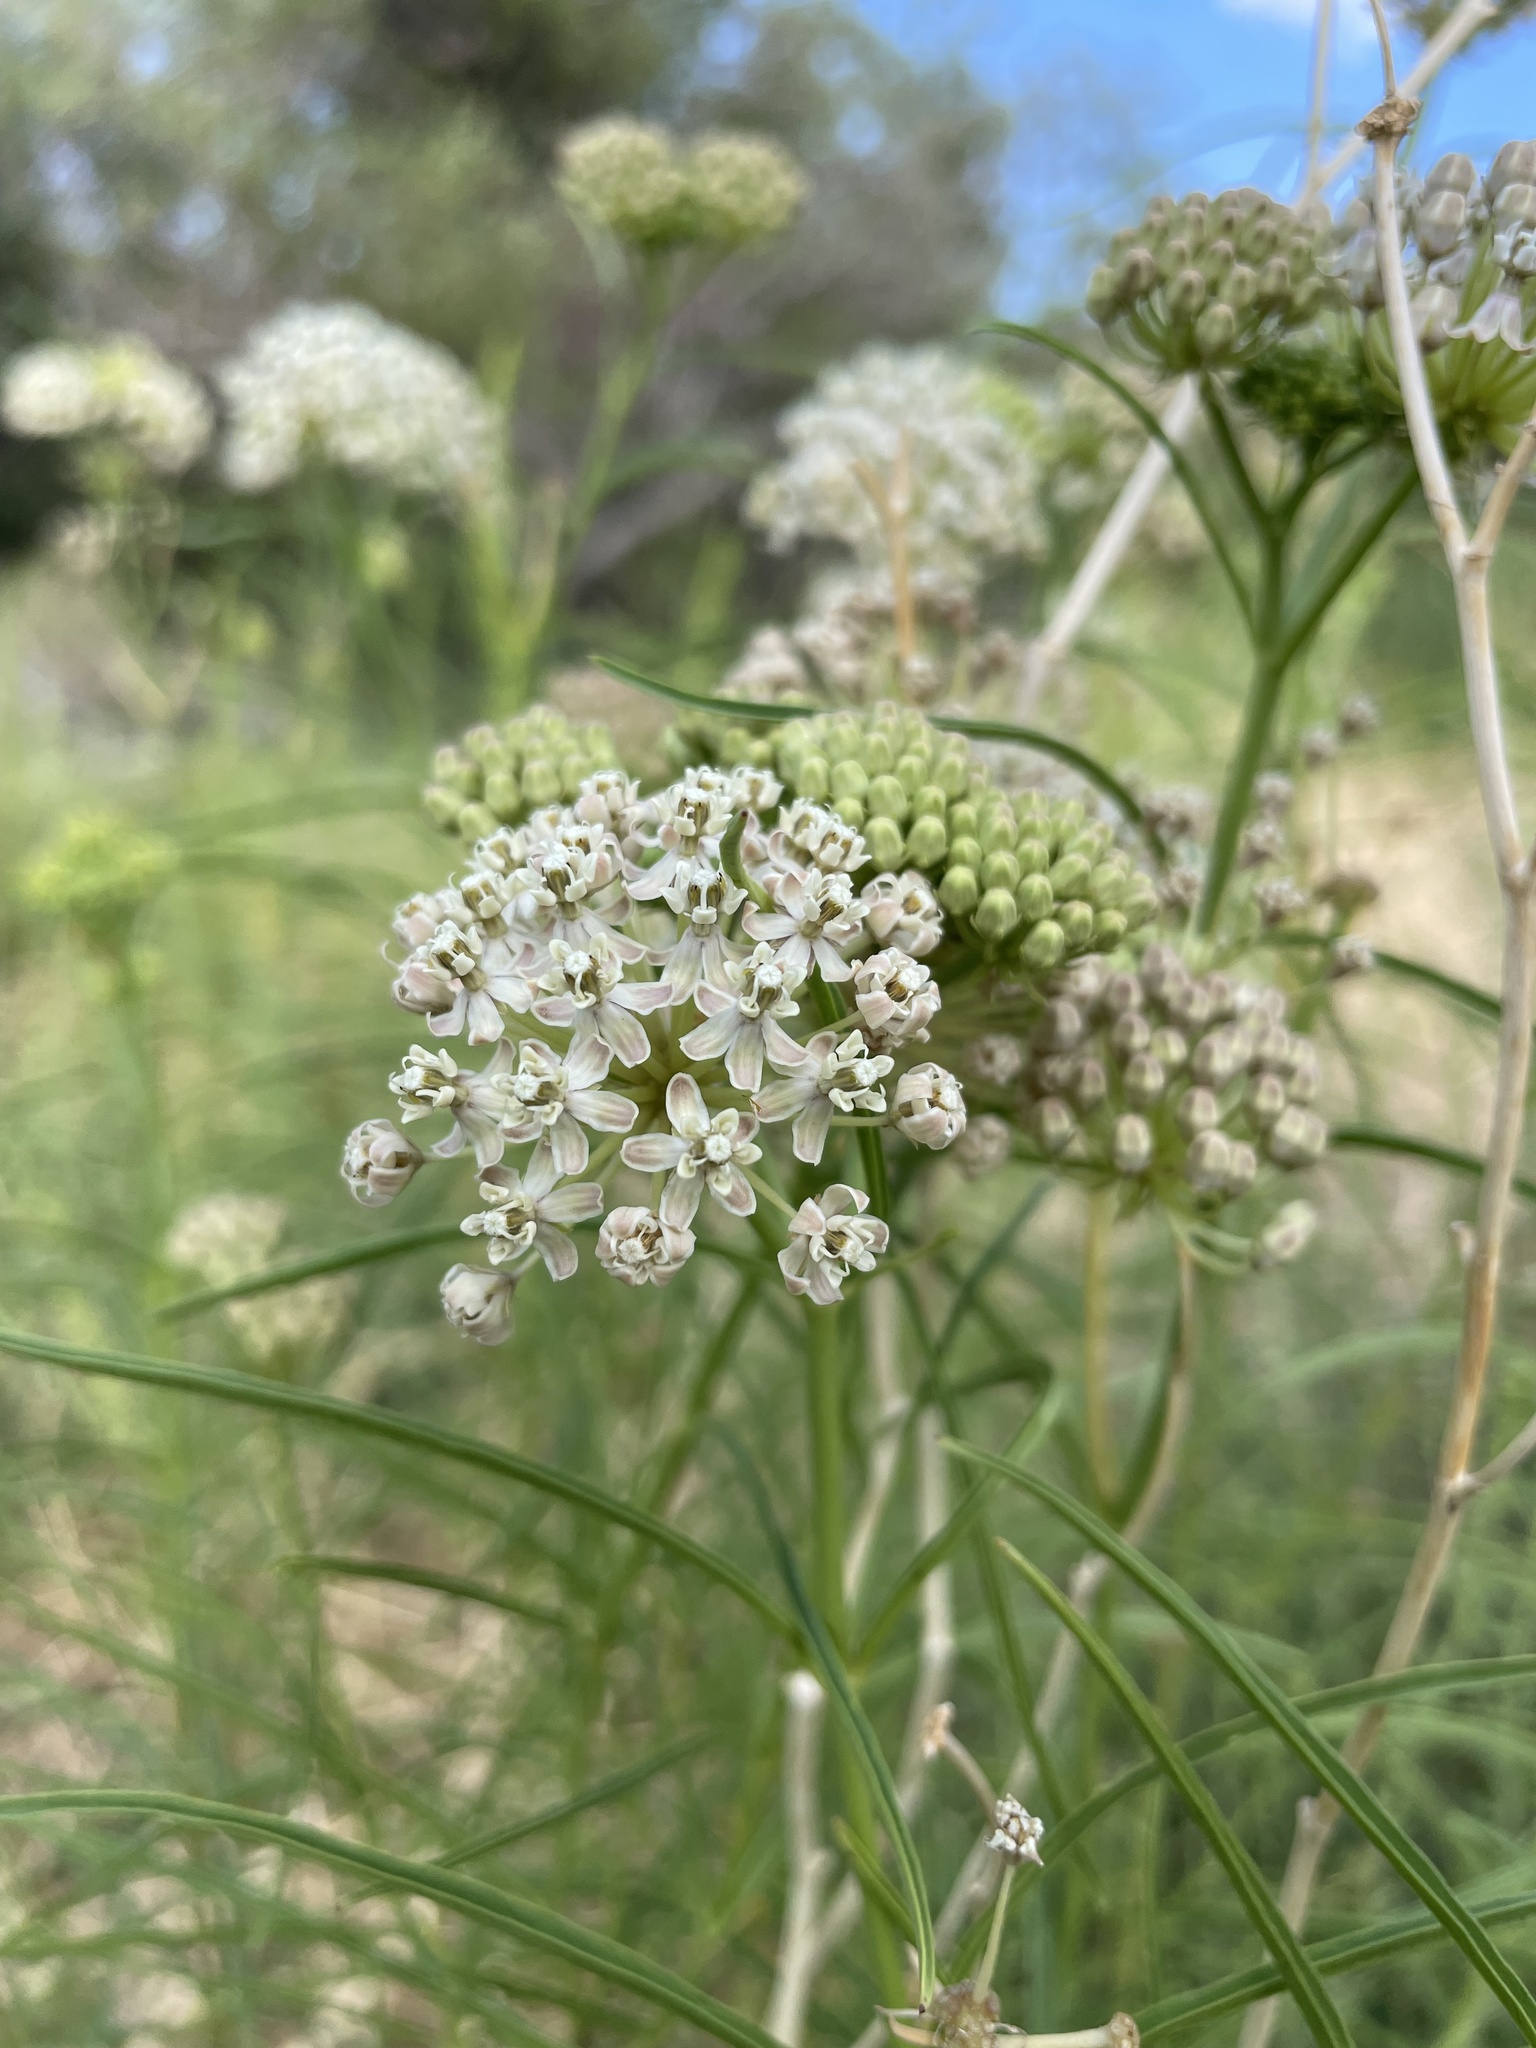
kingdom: Plantae
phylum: Tracheophyta
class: Magnoliopsida
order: Gentianales
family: Apocynaceae
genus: Asclepias
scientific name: Asclepias fascicularis
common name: Mexican milkweed
